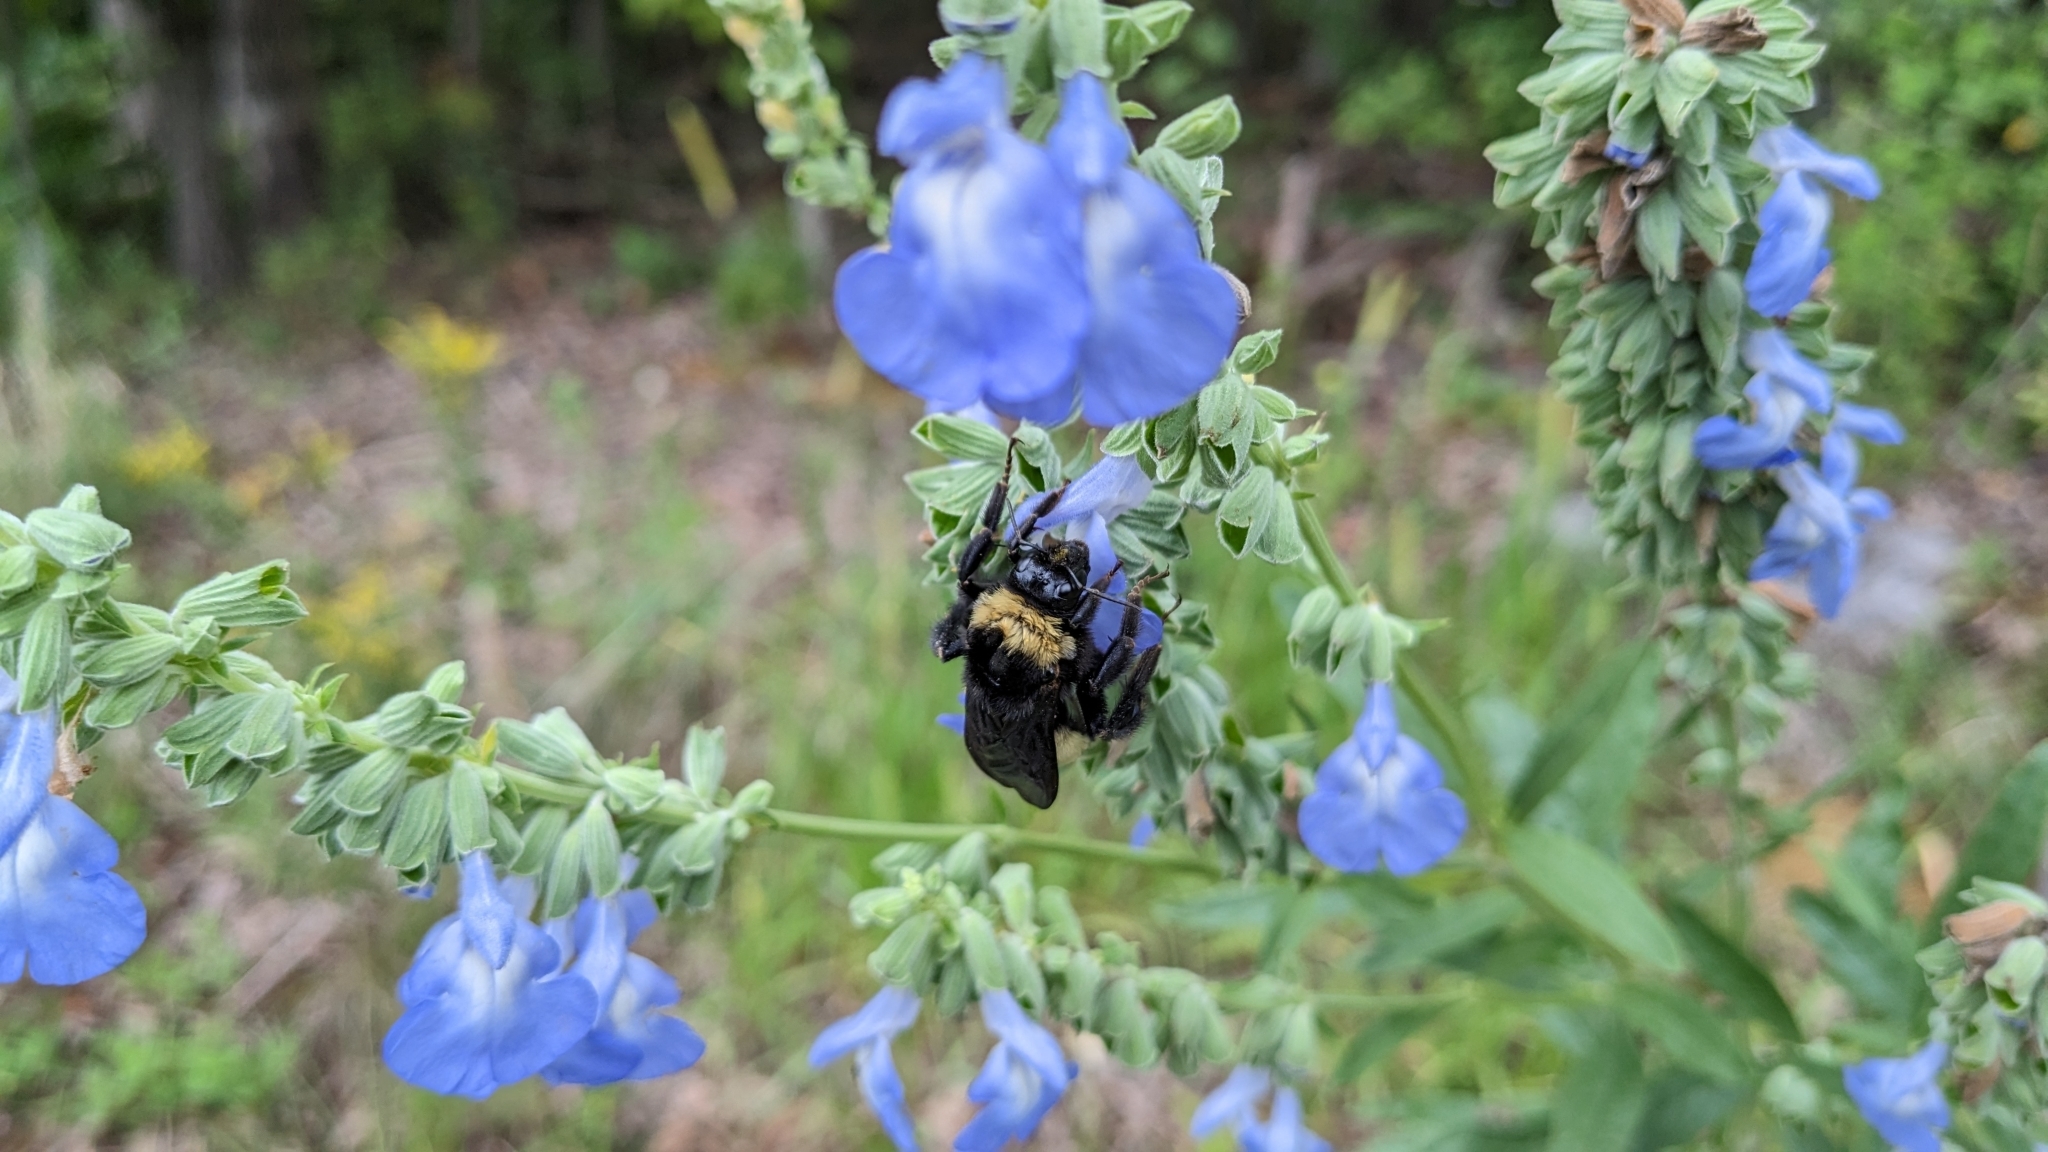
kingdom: Plantae
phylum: Tracheophyta
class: Magnoliopsida
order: Lamiales
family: Lamiaceae
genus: Salvia
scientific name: Salvia azurea
